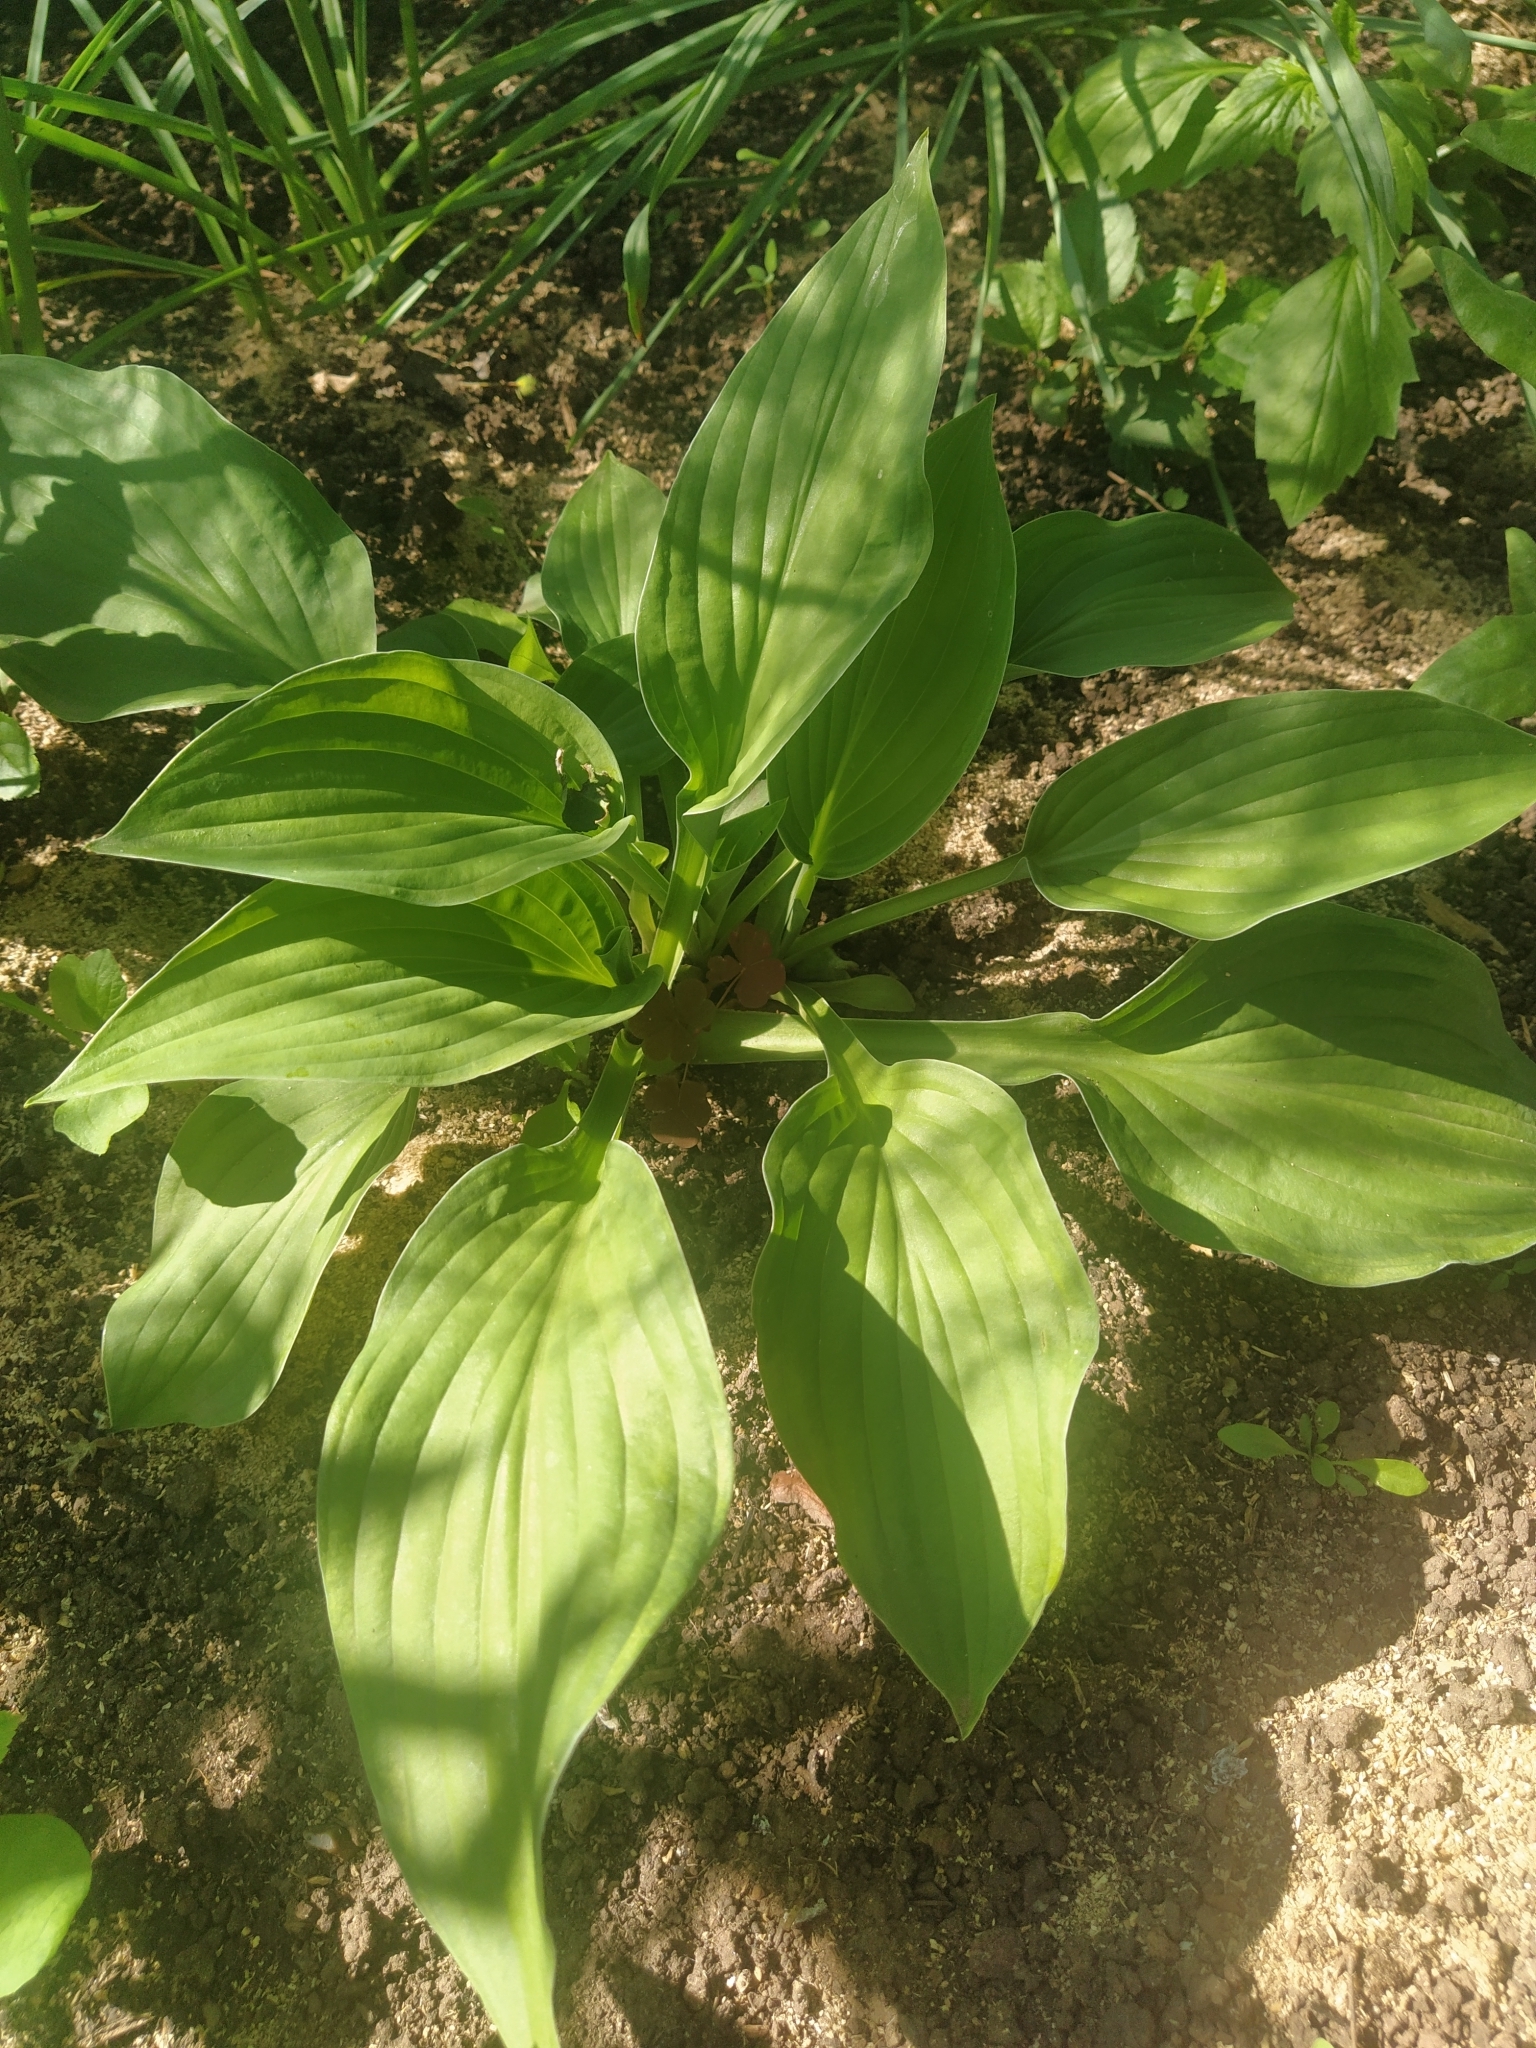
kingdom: Plantae
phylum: Tracheophyta
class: Liliopsida
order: Alismatales
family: Alismataceae
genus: Alisma
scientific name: Alisma plantago-aquatica
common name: Water-plantain
